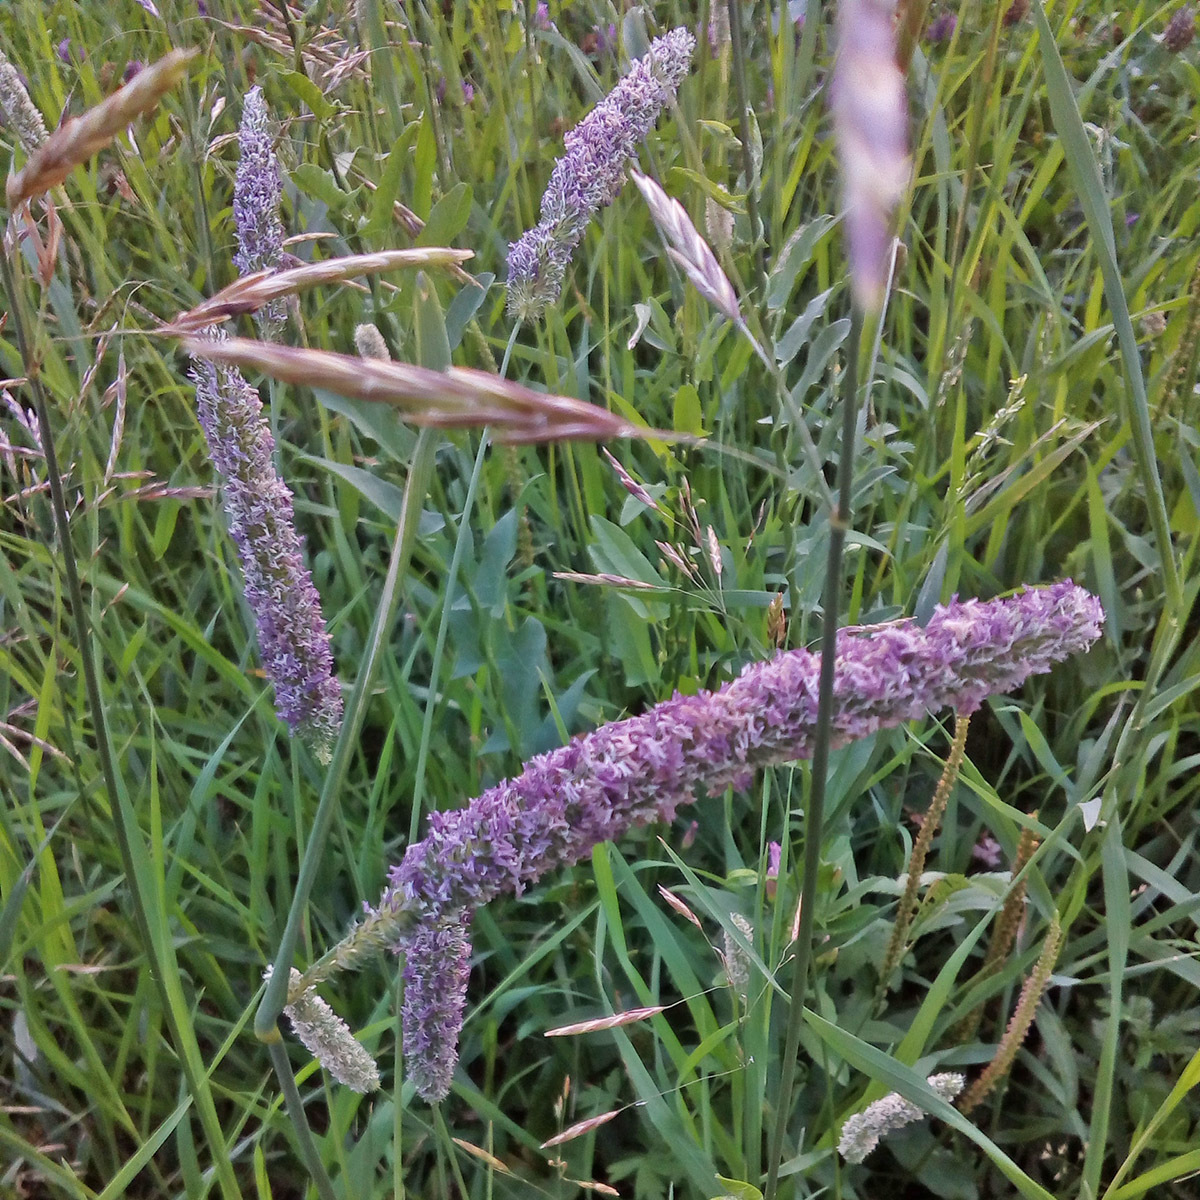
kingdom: Plantae
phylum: Tracheophyta
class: Liliopsida
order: Poales
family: Poaceae
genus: Phleum
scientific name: Phleum pratense
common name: Timothy grass
